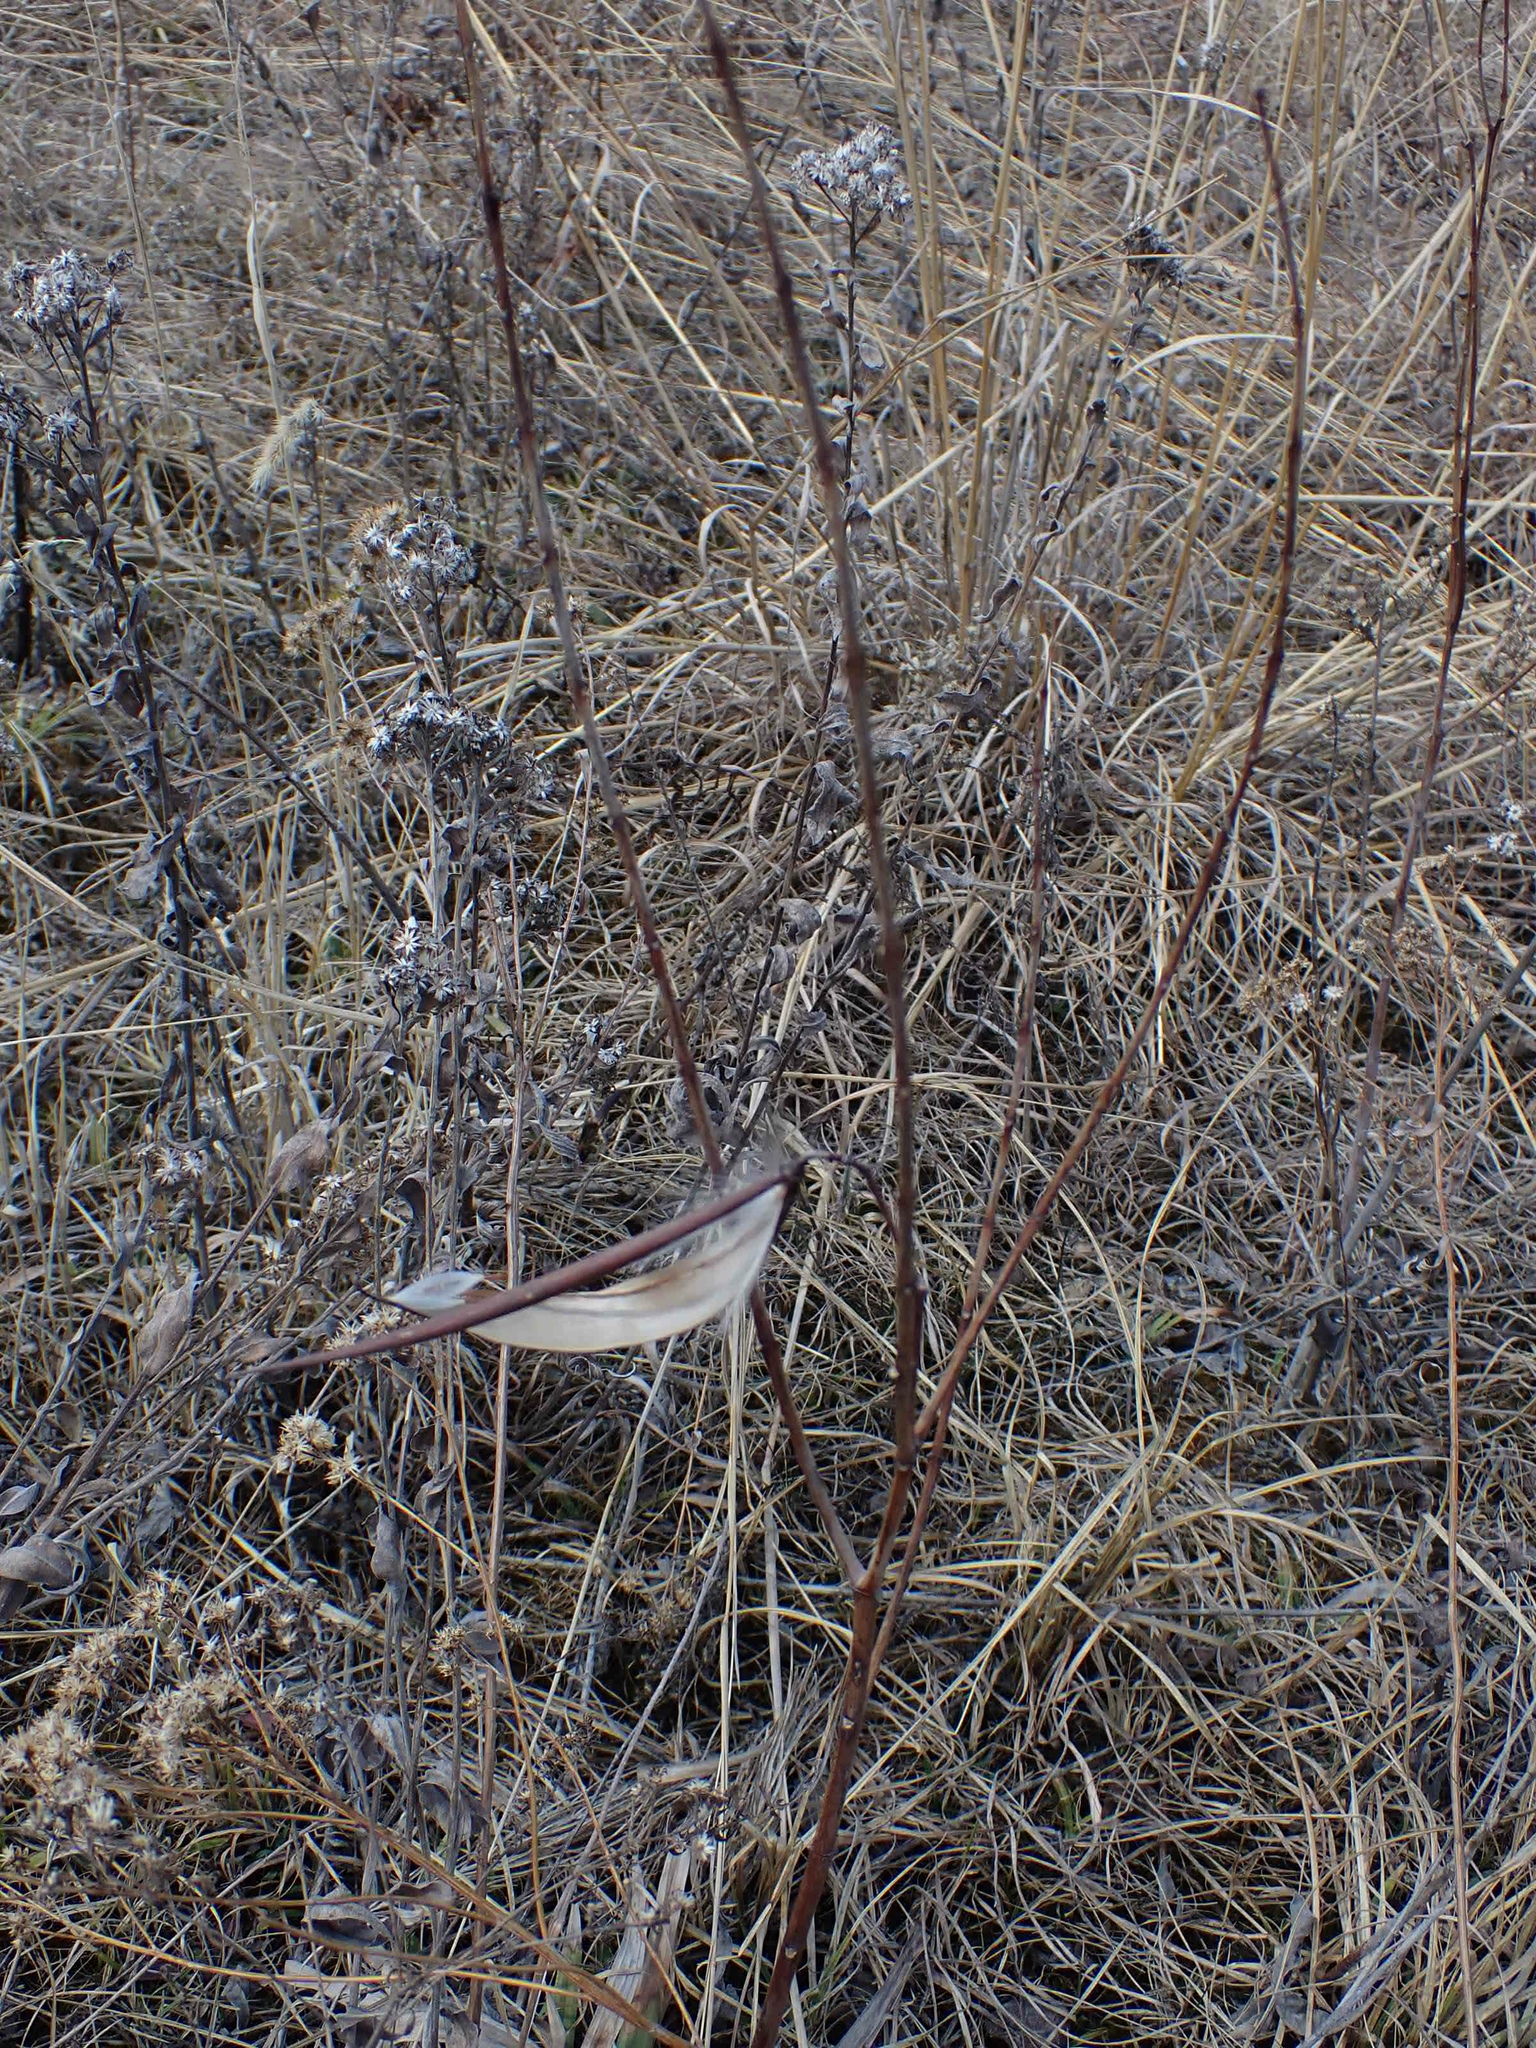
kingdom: Plantae
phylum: Tracheophyta
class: Magnoliopsida
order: Gentianales
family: Apocynaceae
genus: Apocynum
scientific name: Apocynum cannabinum
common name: Hemp dogbane
